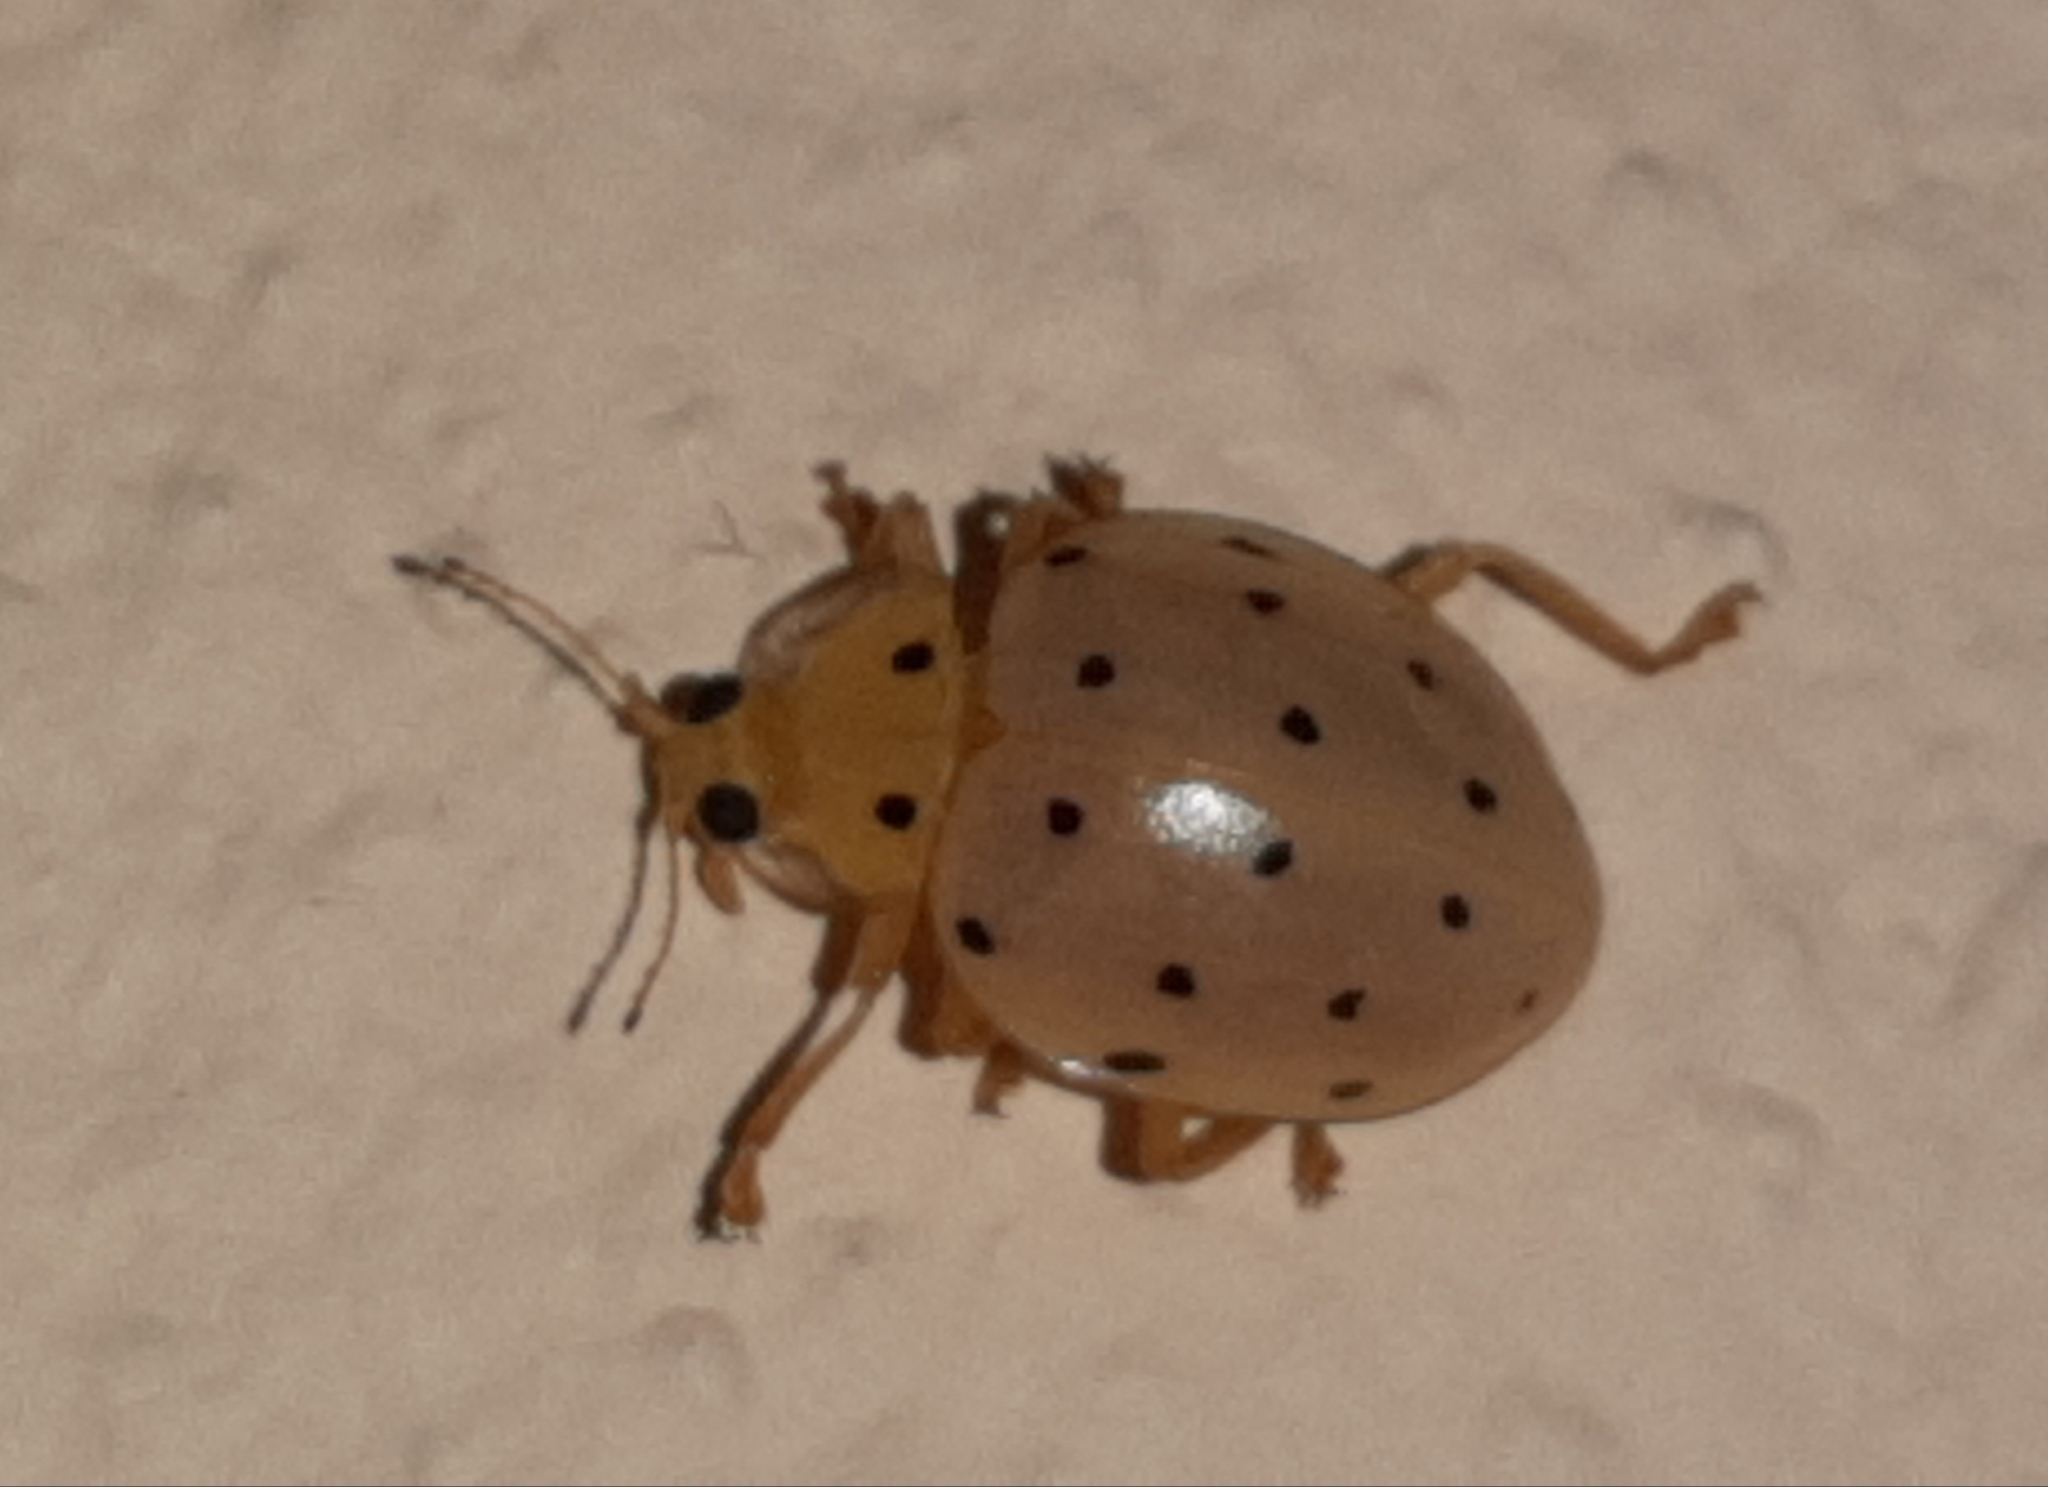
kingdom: Animalia
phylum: Arthropoda
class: Insecta
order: Coleoptera
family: Coccinellidae
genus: Neohalyzia
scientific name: Neohalyzia
